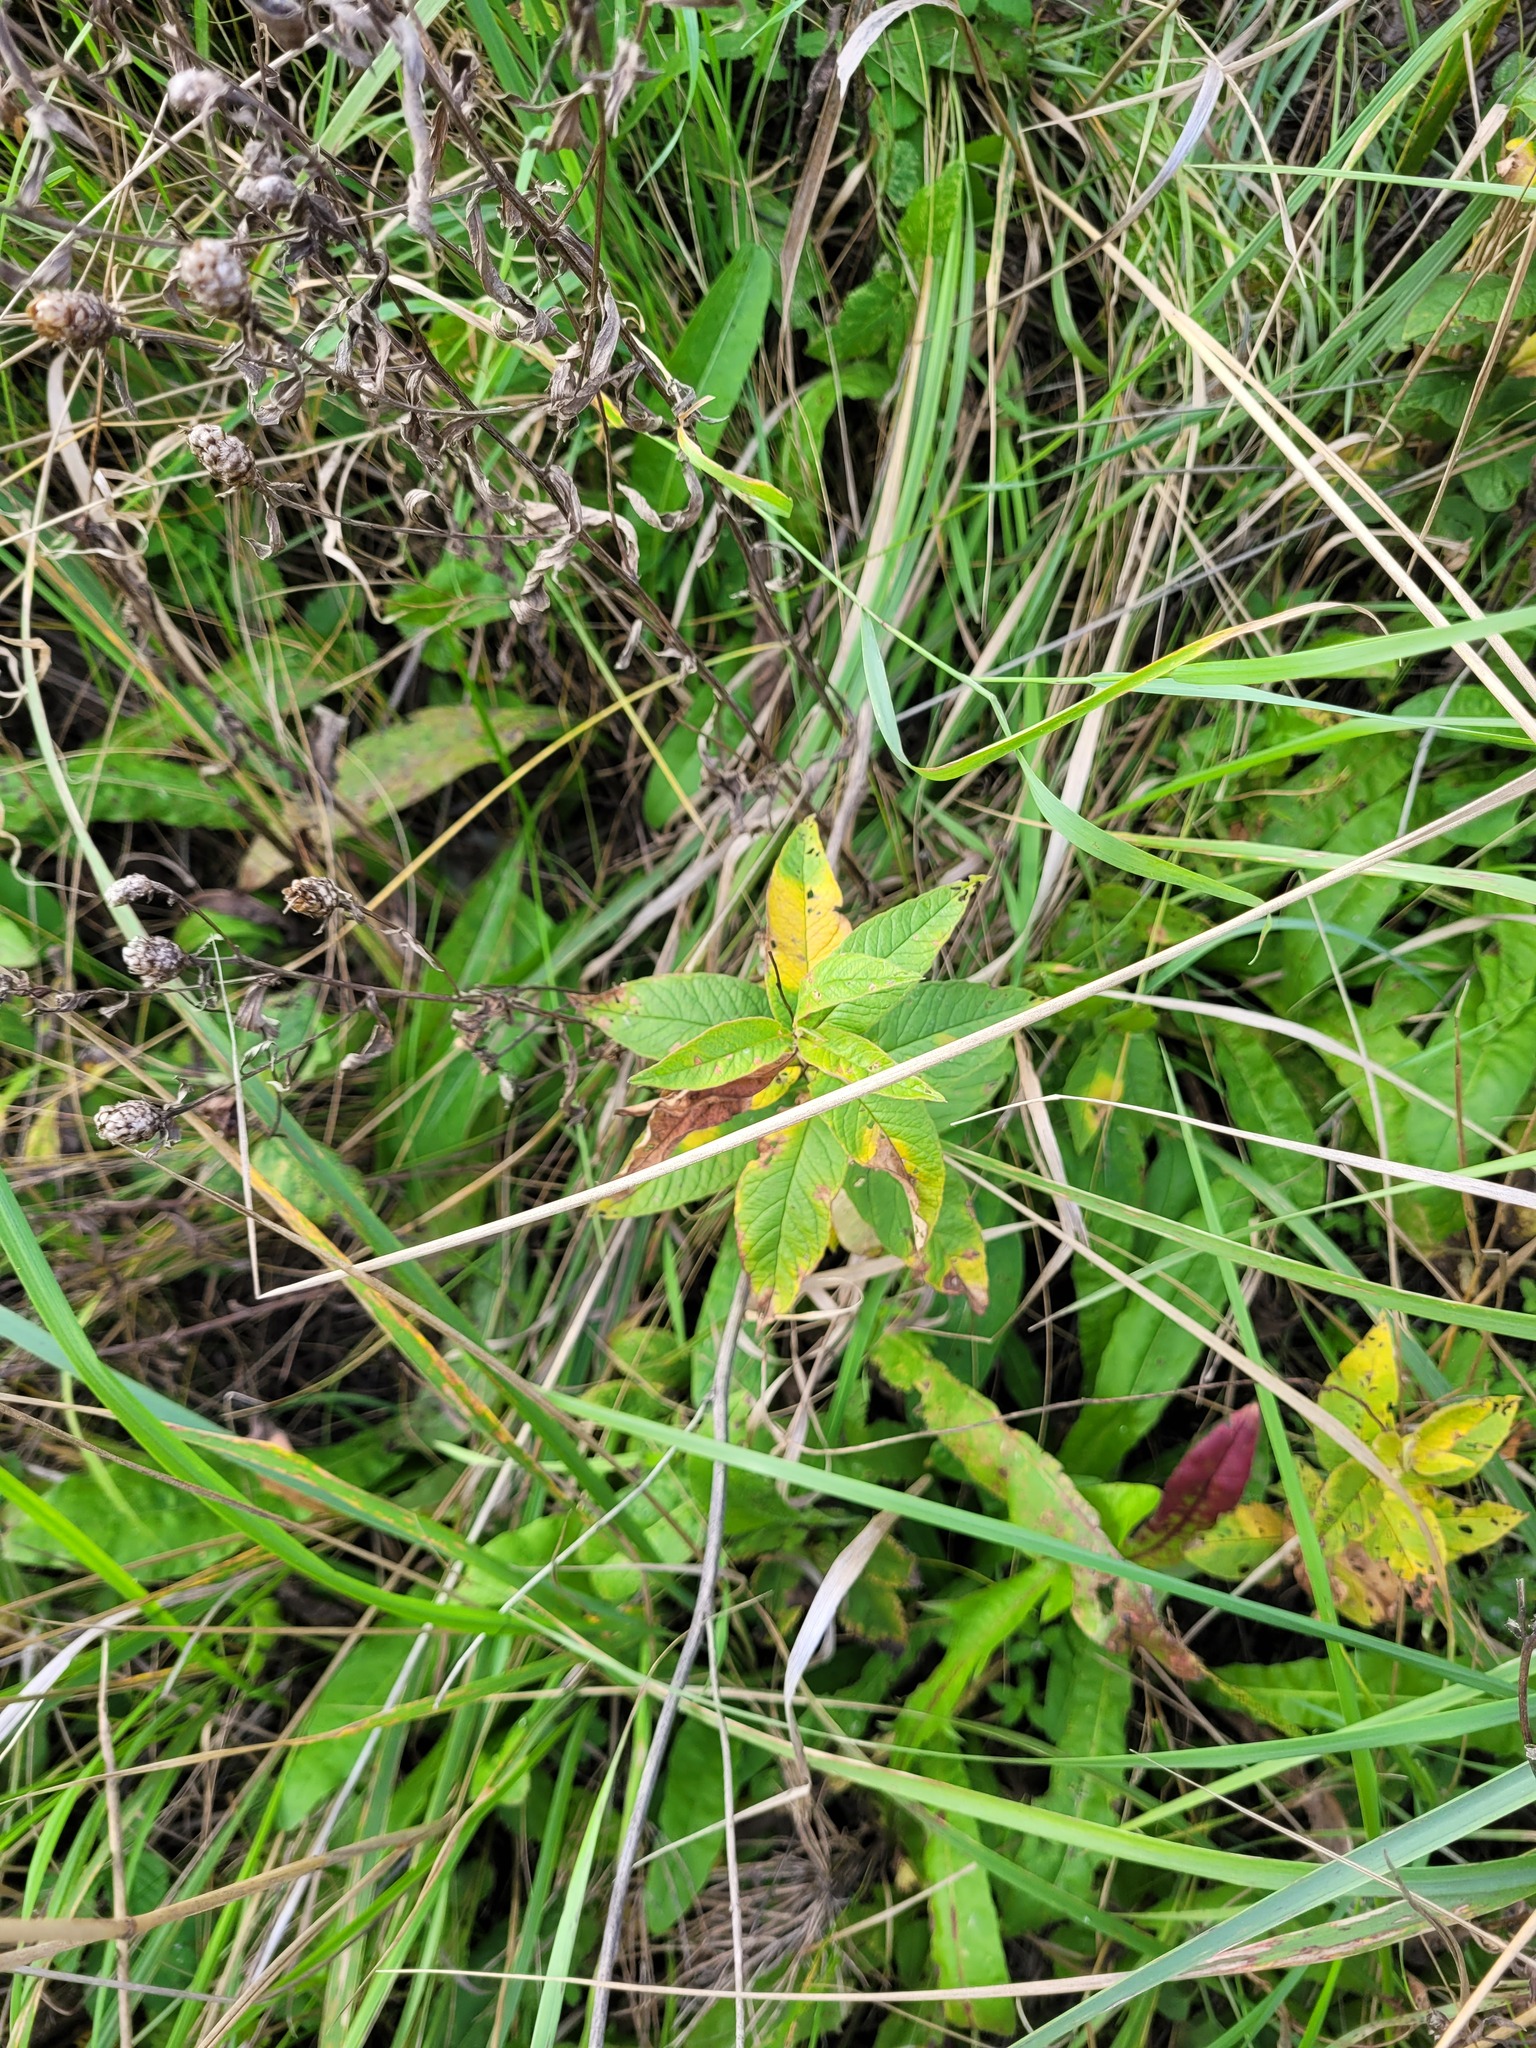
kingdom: Plantae
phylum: Tracheophyta
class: Magnoliopsida
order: Ericales
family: Primulaceae
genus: Lysimachia
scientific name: Lysimachia vulgaris
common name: Yellow loosestrife
